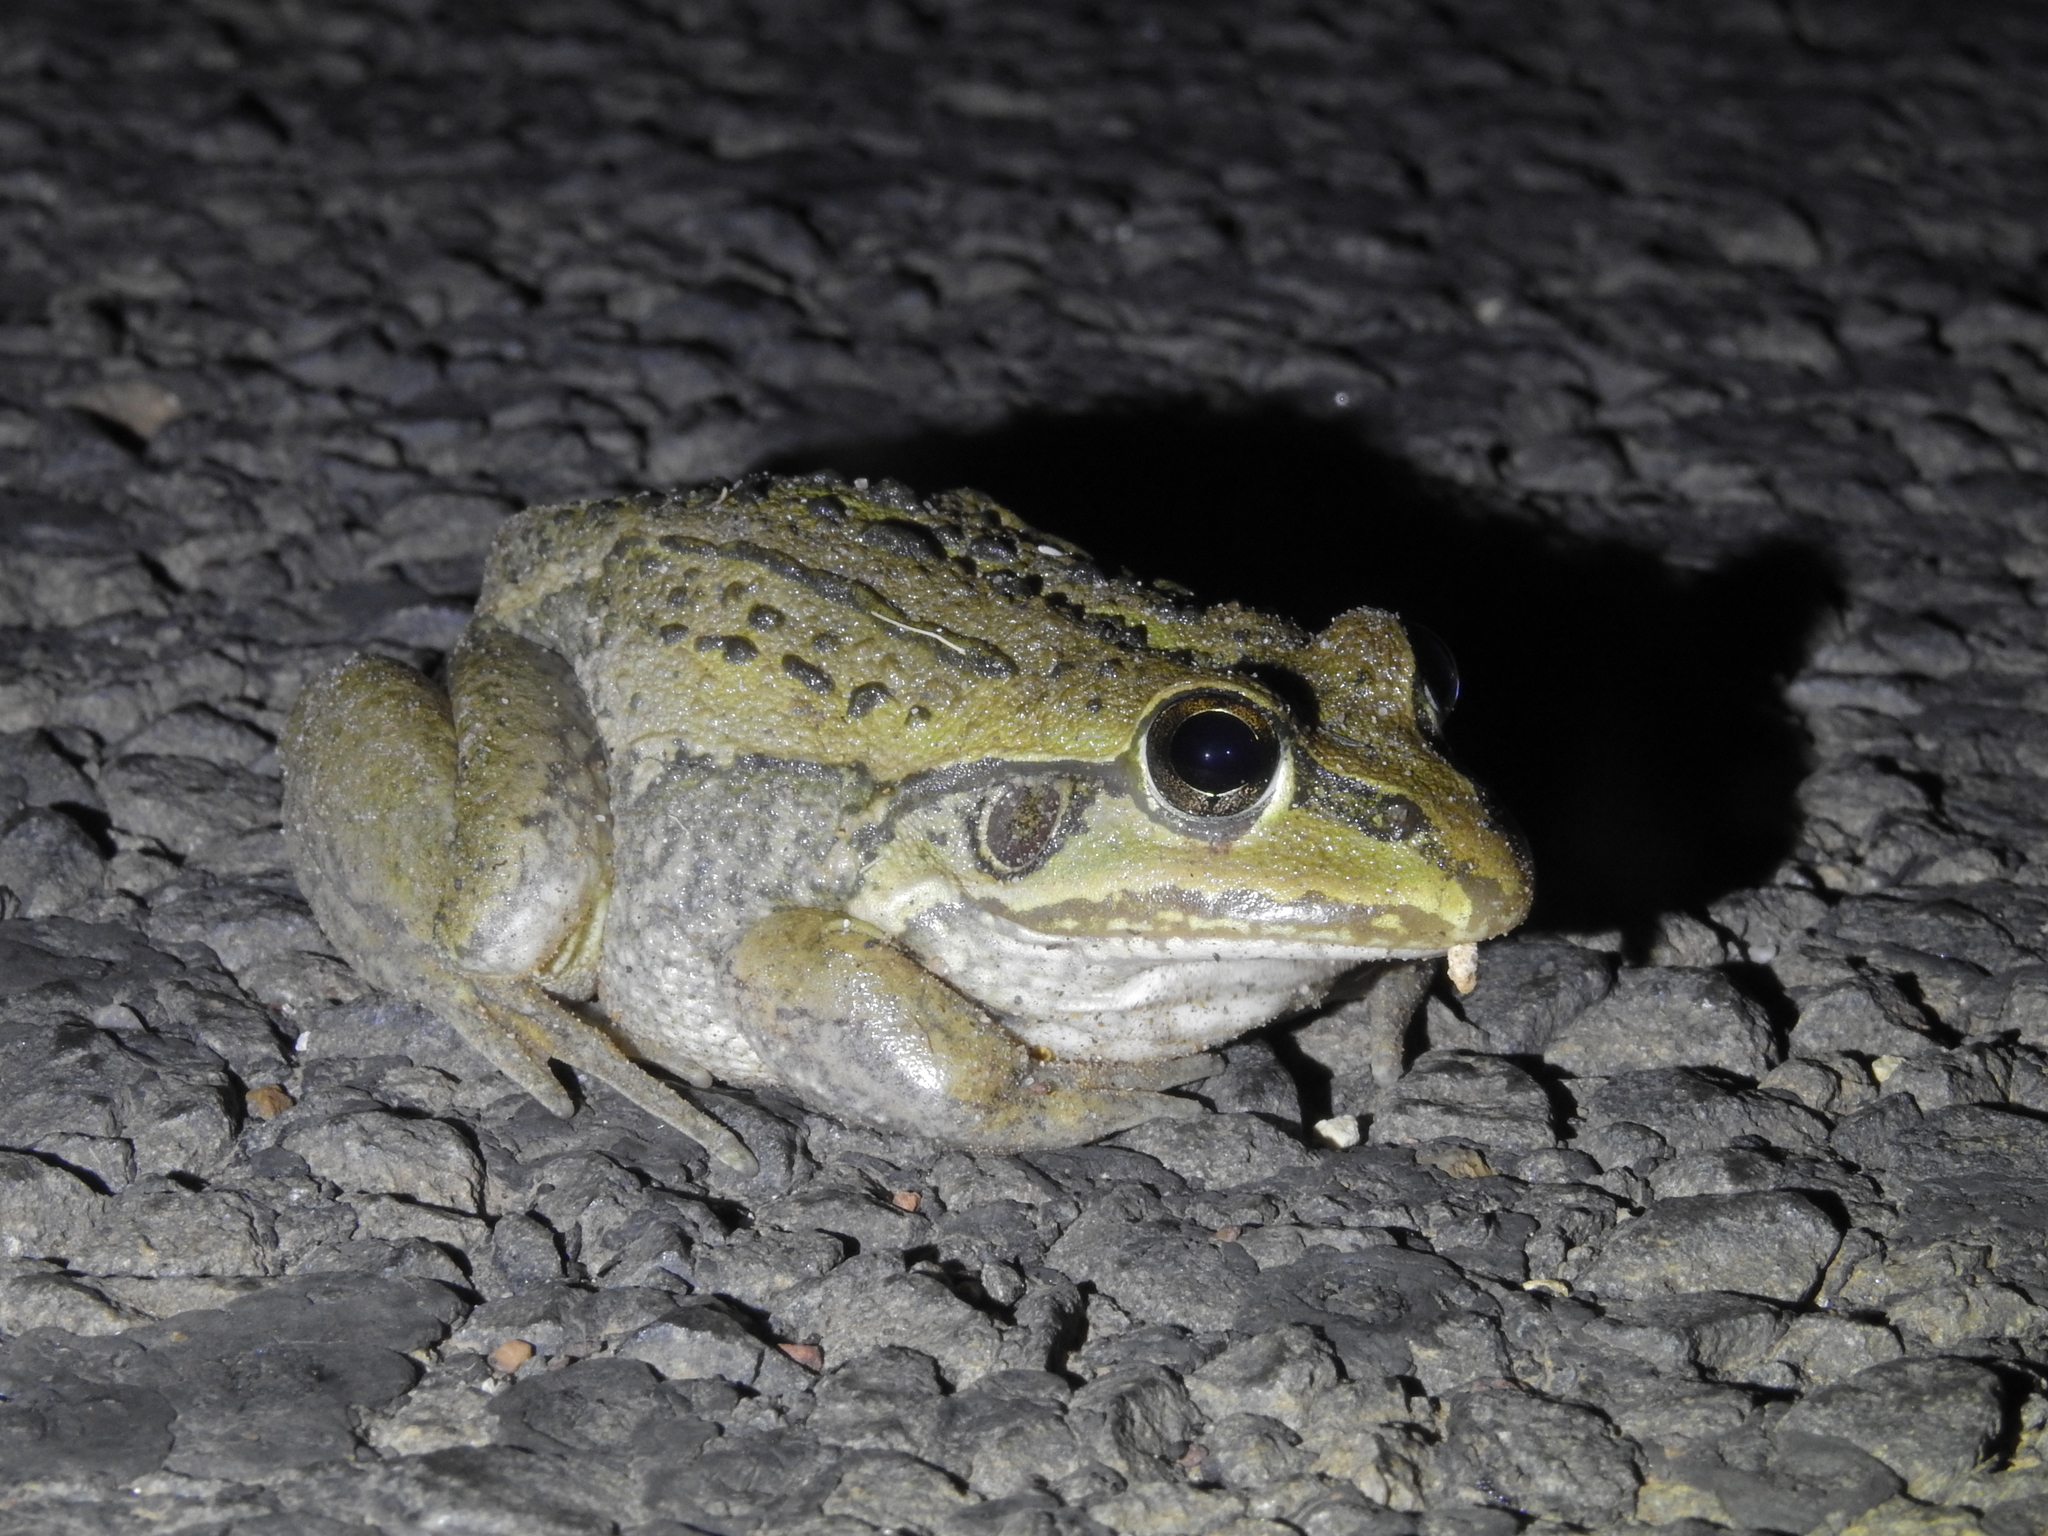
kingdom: Animalia
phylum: Chordata
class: Amphibia
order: Anura
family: Pelodryadidae
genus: Ranoidea
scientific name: Ranoidea alboguttata
